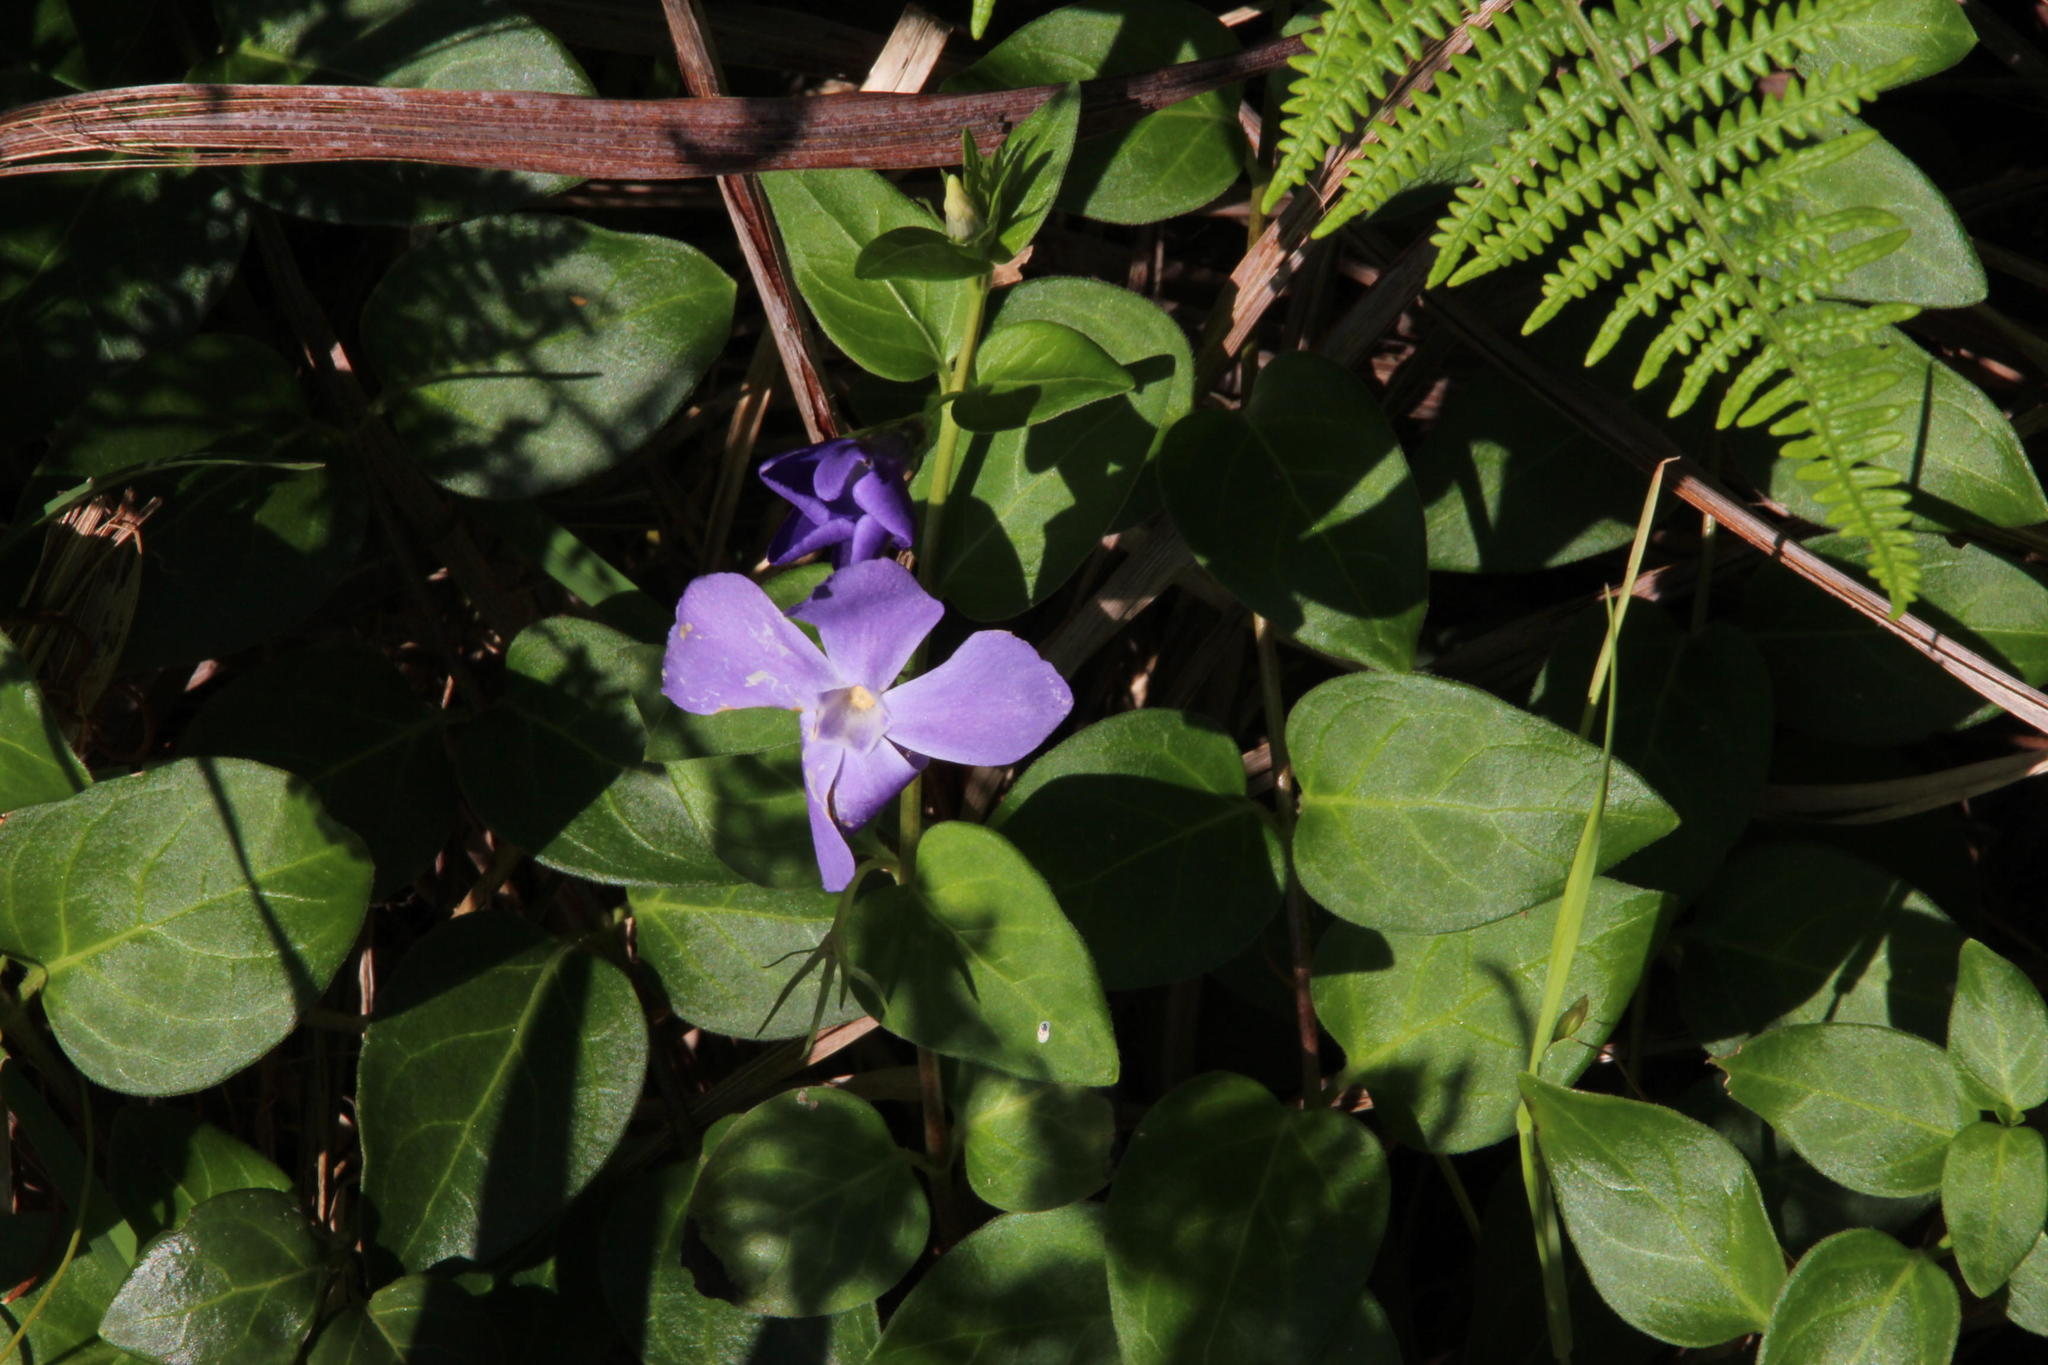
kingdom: Plantae
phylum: Tracheophyta
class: Magnoliopsida
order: Gentianales
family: Apocynaceae
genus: Vinca
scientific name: Vinca major
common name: Greater periwinkle
